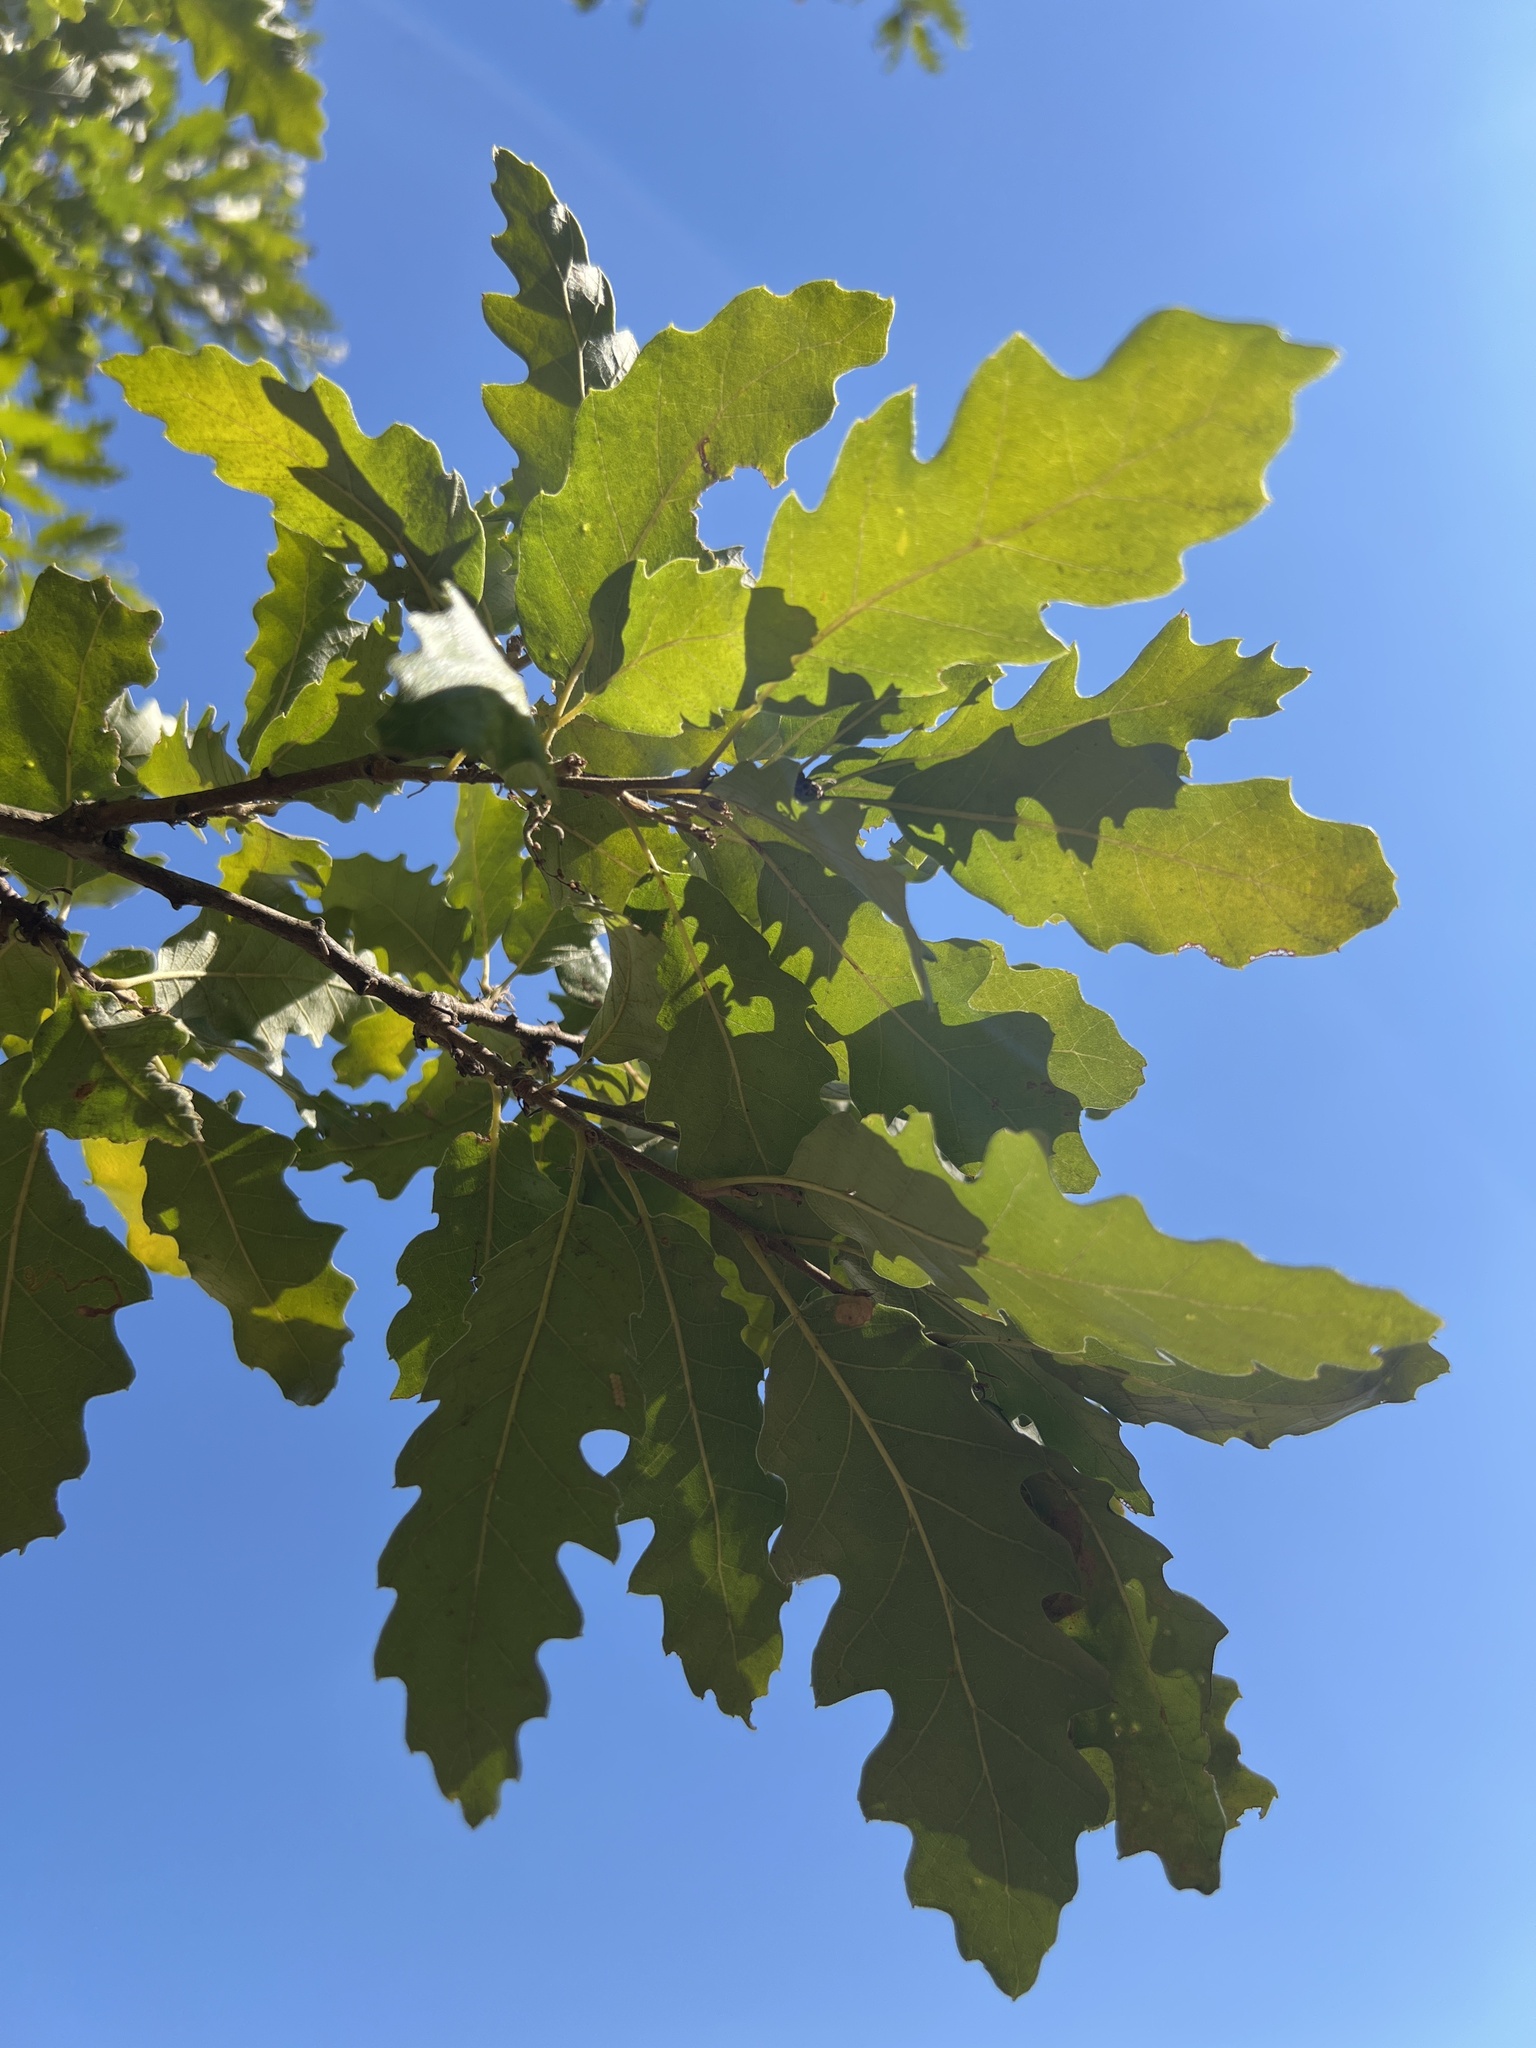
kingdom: Plantae
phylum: Tracheophyta
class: Magnoliopsida
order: Fagales
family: Fagaceae
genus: Quercus
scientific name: Quercus cerris
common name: Turkey oak
